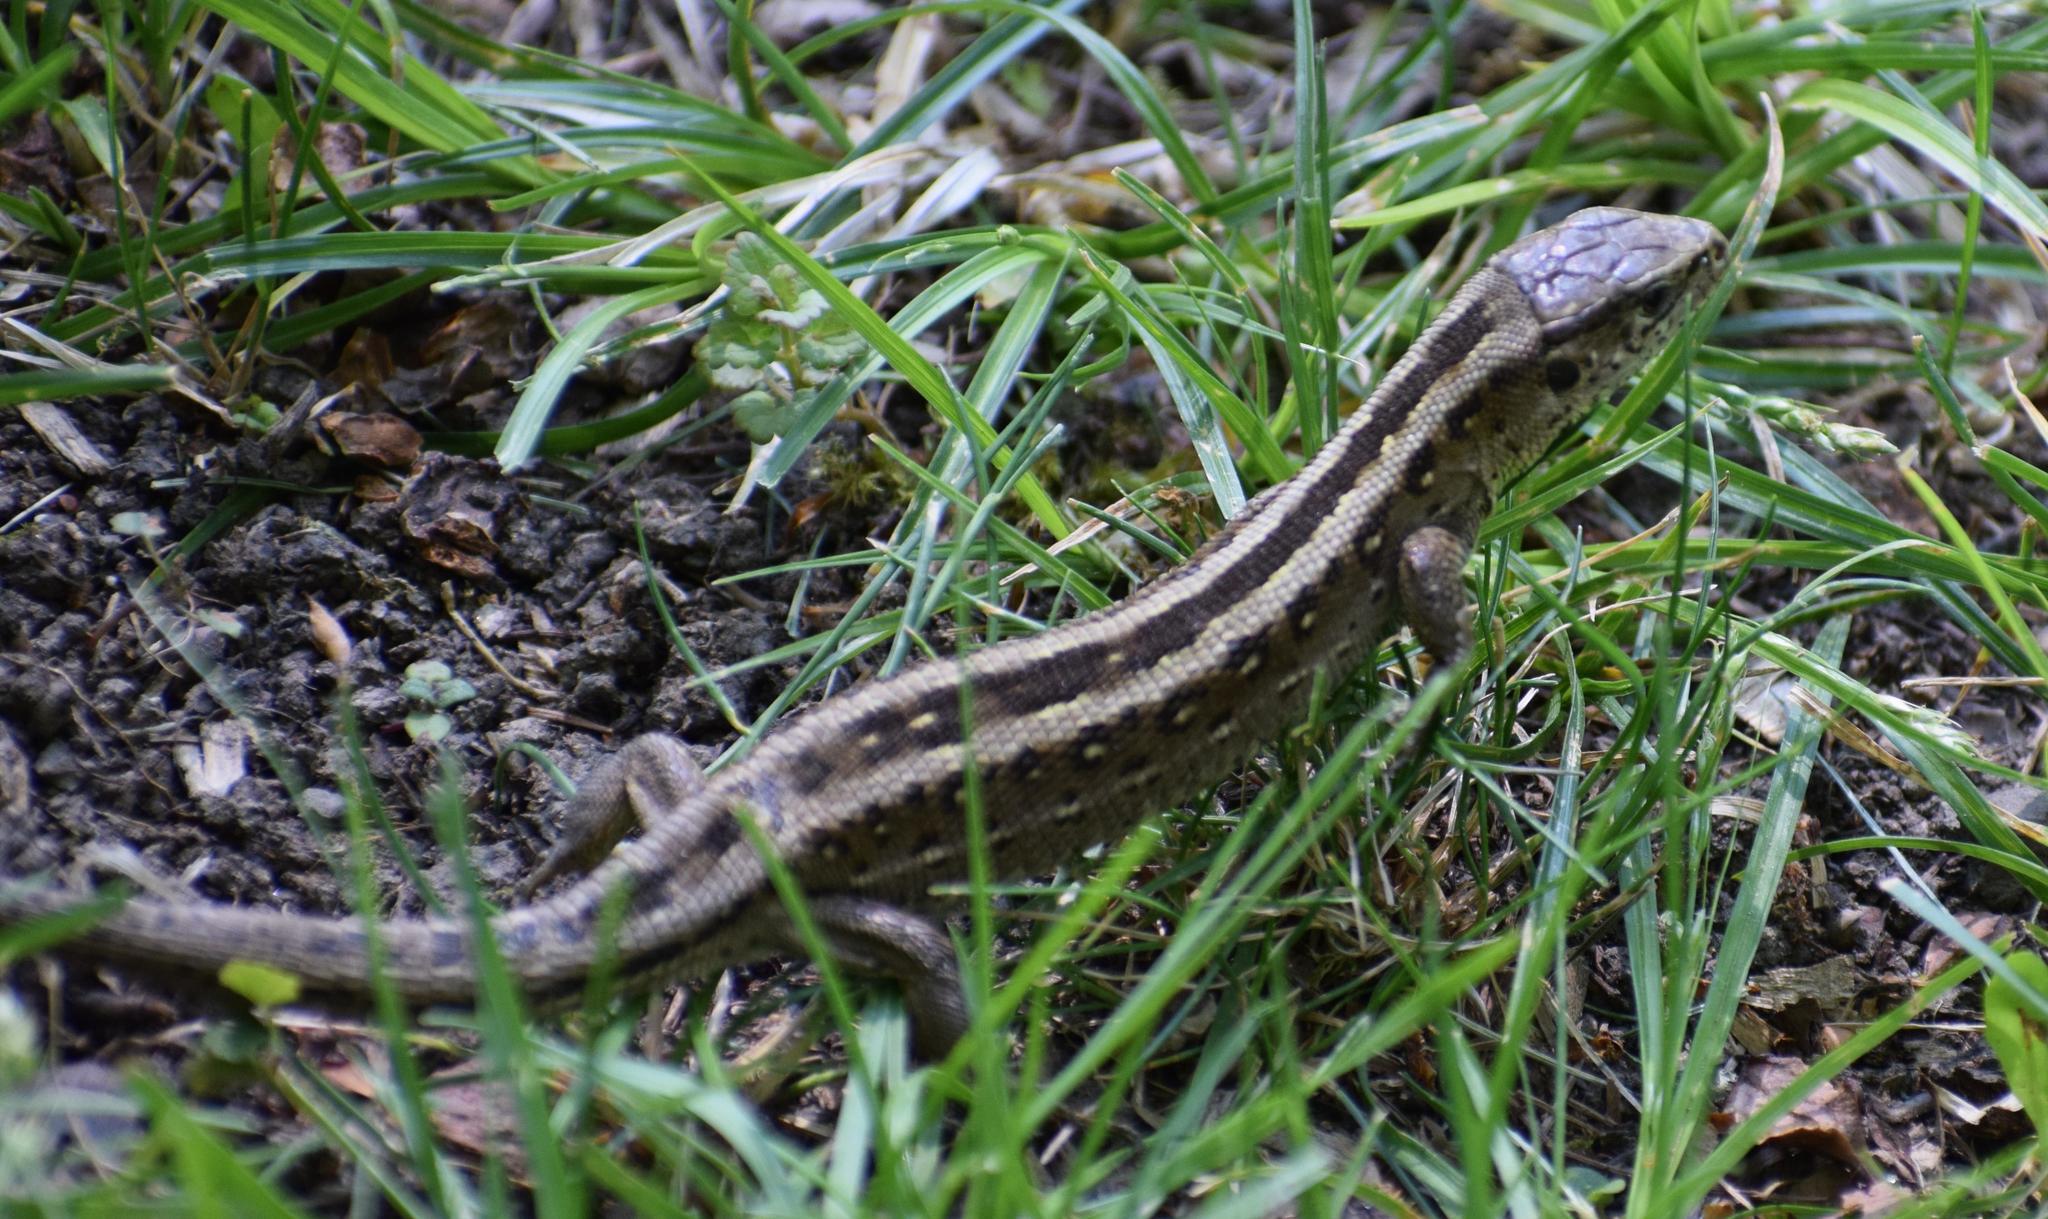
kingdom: Animalia
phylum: Chordata
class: Squamata
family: Lacertidae
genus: Lacerta
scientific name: Lacerta agilis
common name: Sand lizard
